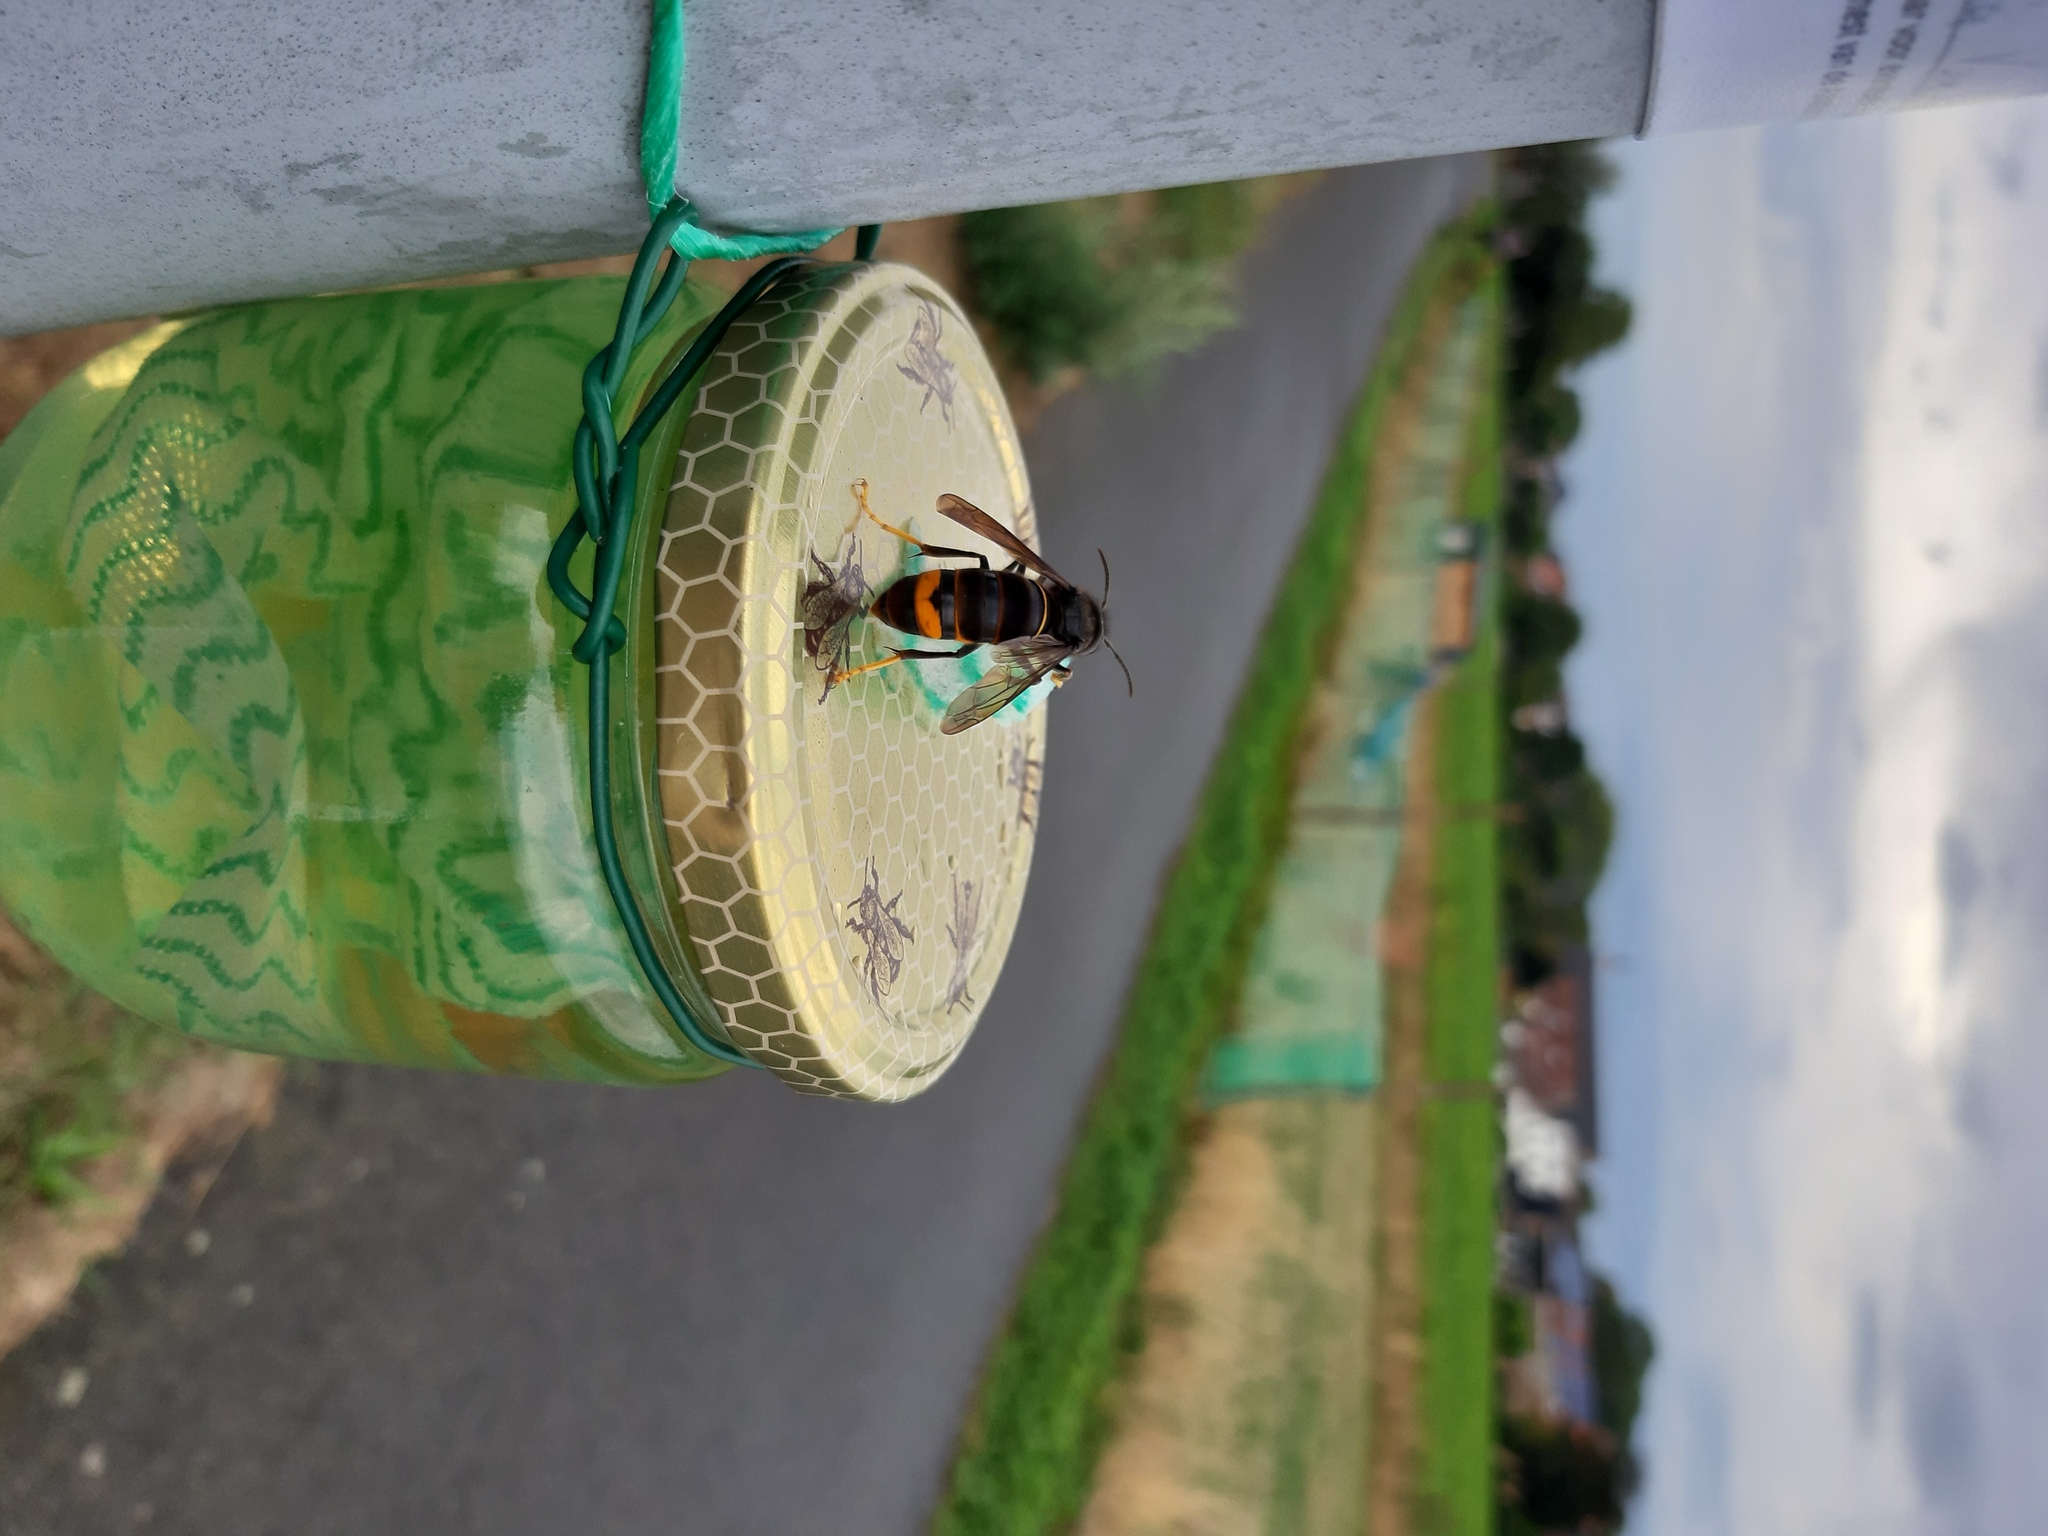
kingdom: Animalia
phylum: Arthropoda
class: Insecta
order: Hymenoptera
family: Vespidae
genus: Vespa
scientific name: Vespa velutina
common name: Asian hornet
